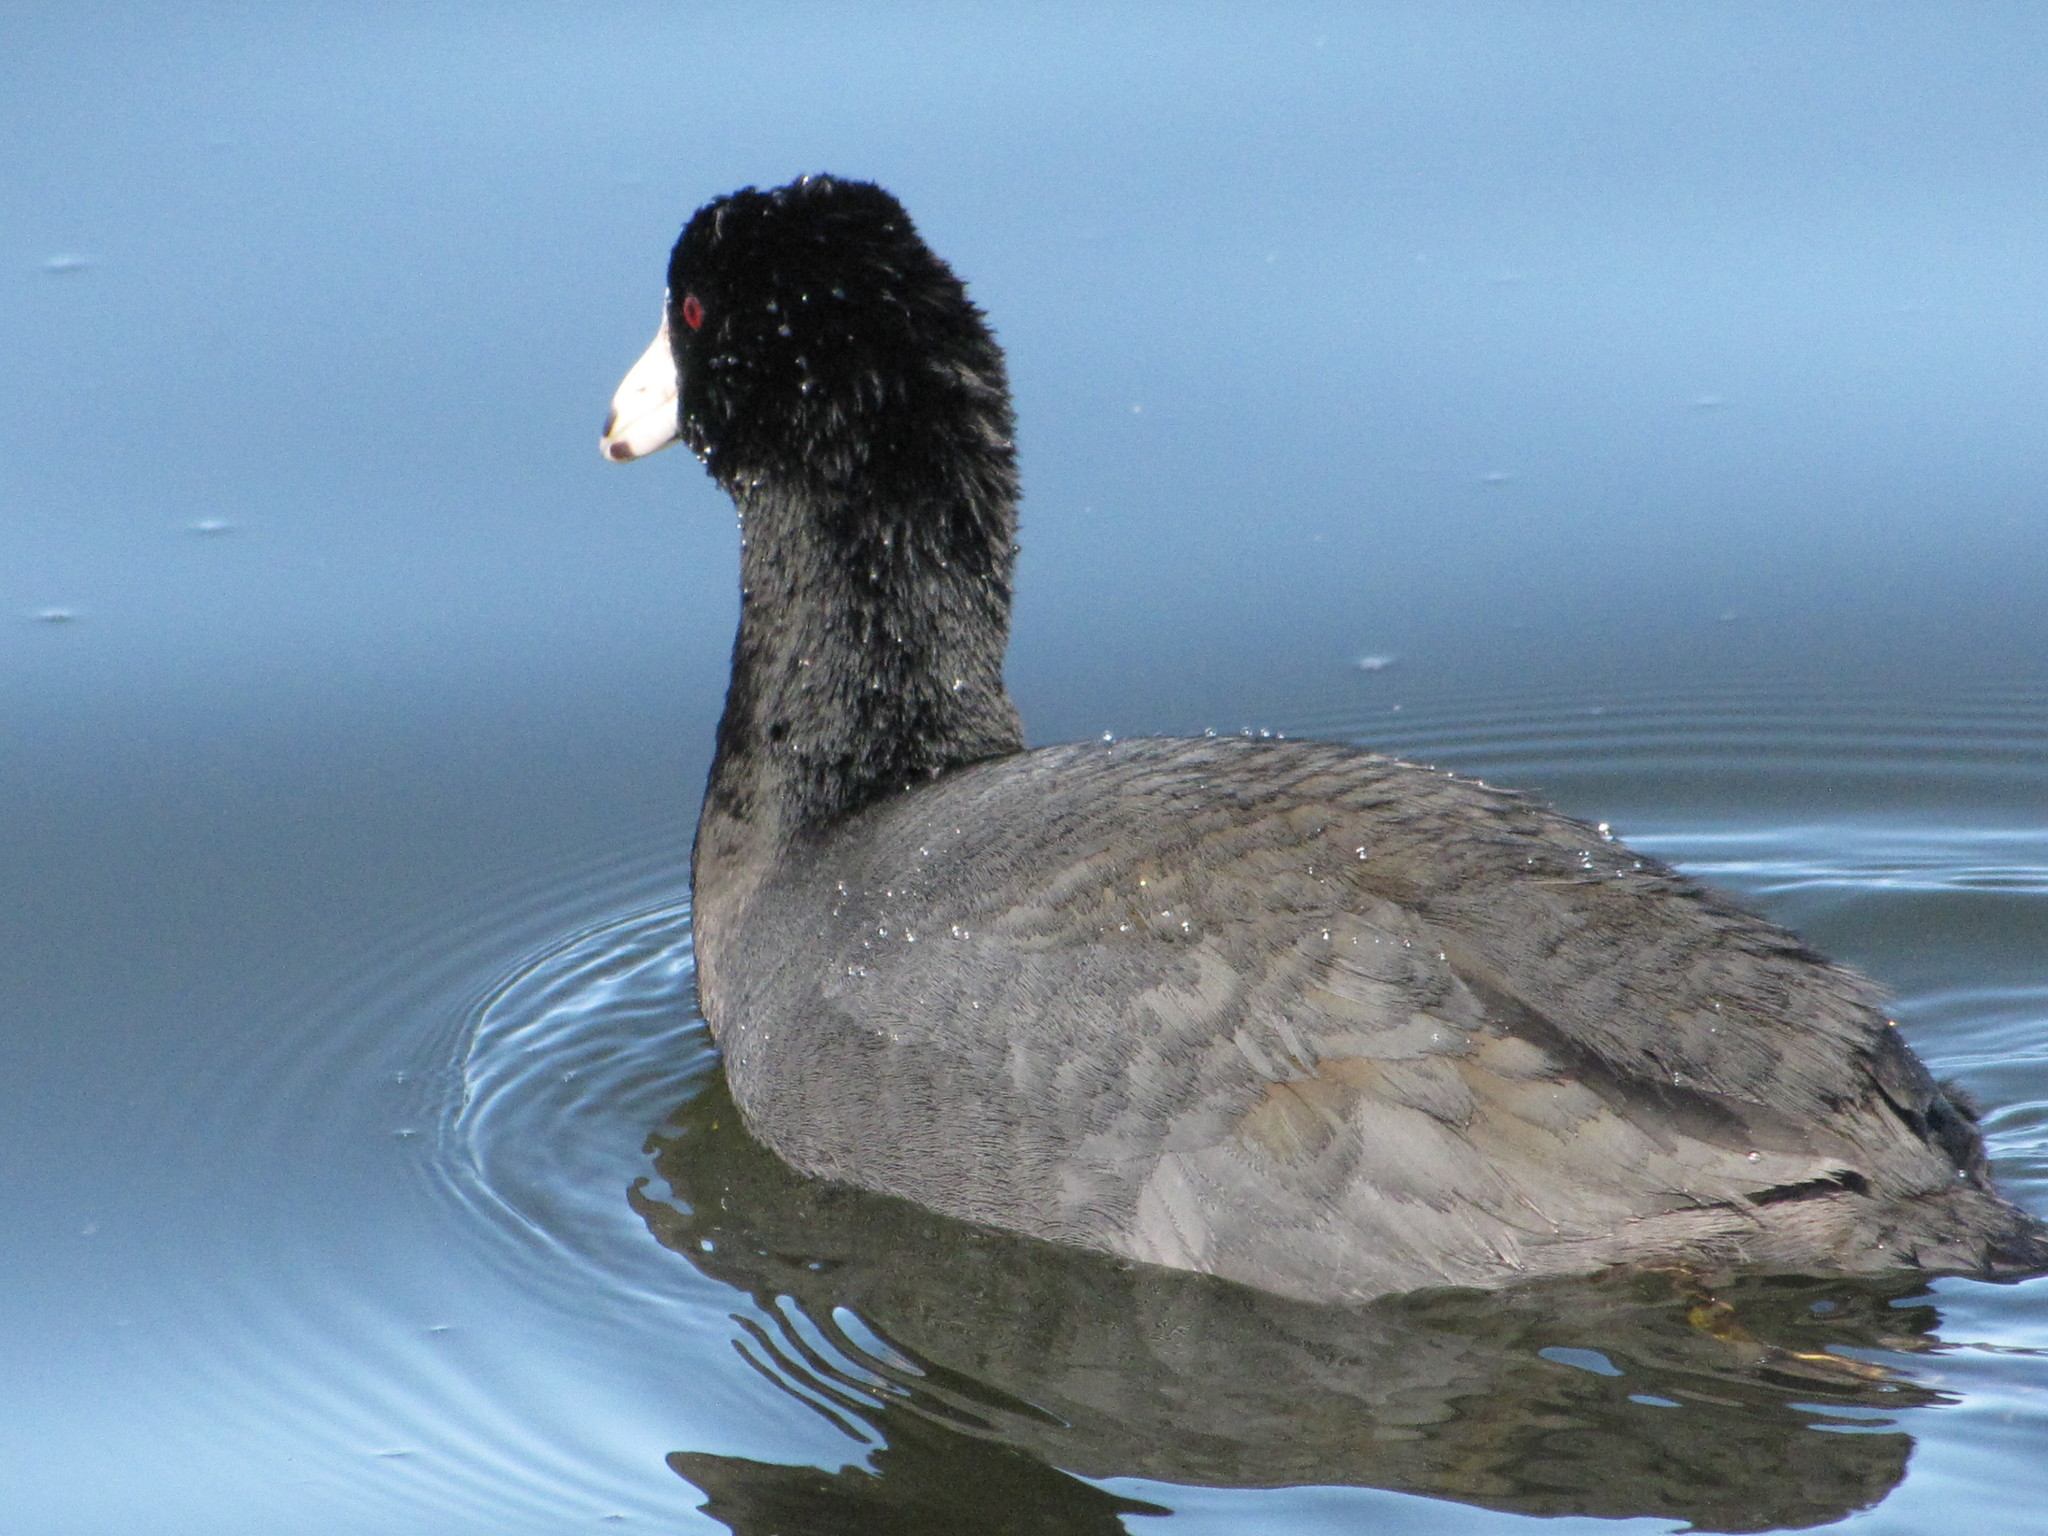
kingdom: Animalia
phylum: Chordata
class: Aves
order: Gruiformes
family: Rallidae
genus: Fulica
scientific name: Fulica americana
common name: American coot
